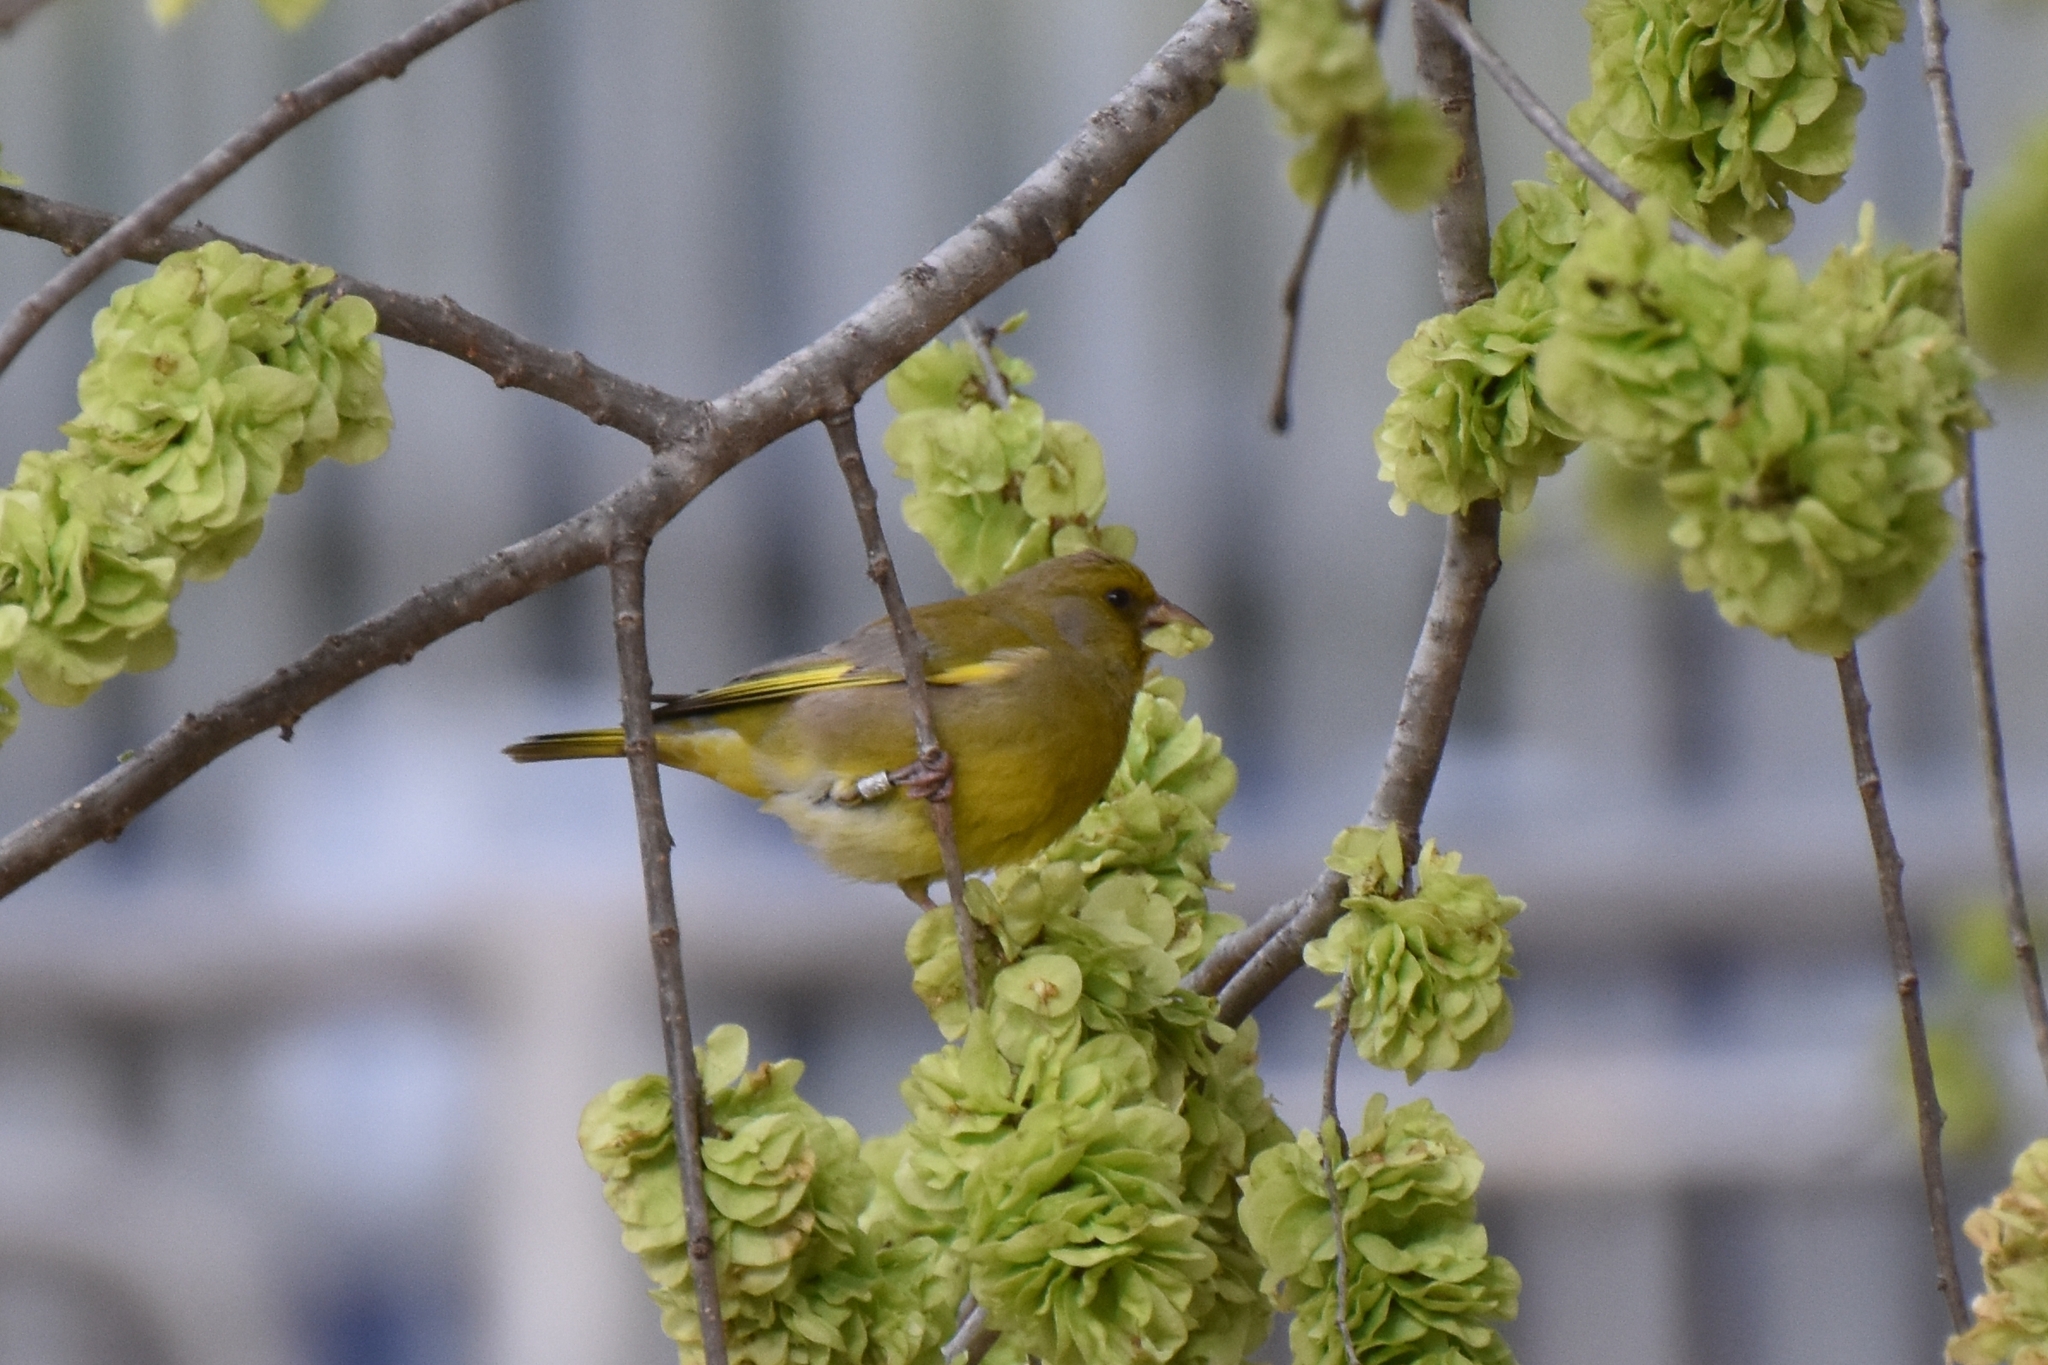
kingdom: Plantae
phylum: Tracheophyta
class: Liliopsida
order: Poales
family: Poaceae
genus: Chloris
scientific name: Chloris chloris
